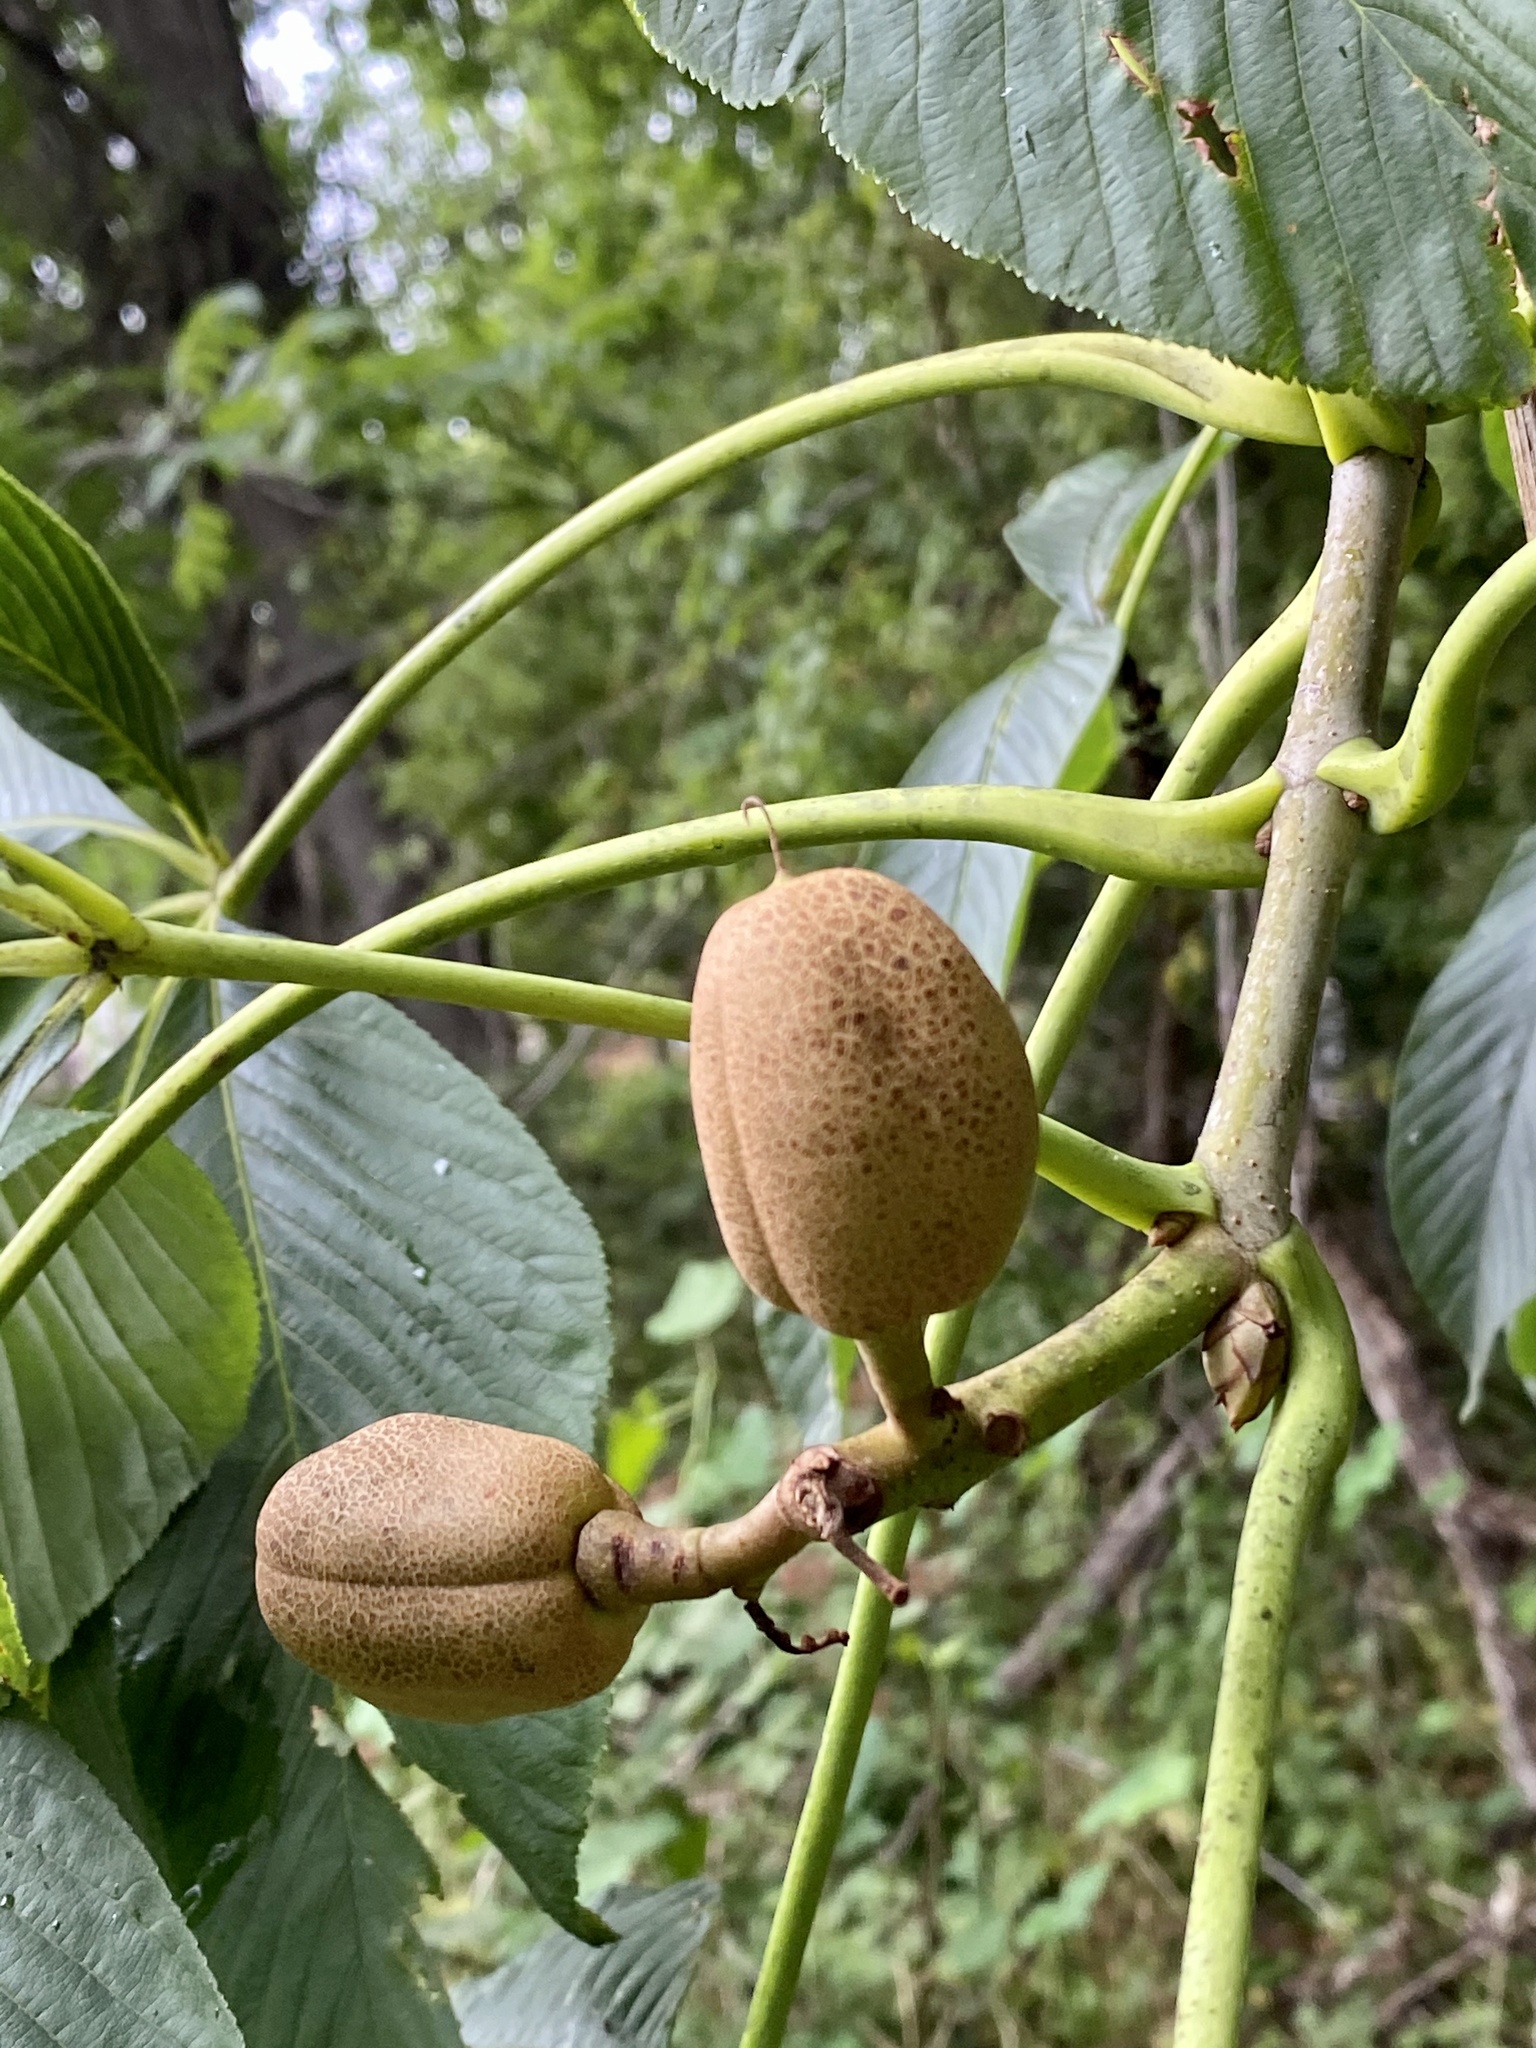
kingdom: Plantae
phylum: Tracheophyta
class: Magnoliopsida
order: Sapindales
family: Sapindaceae
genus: Aesculus
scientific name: Aesculus flava
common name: Yellow buckeye
